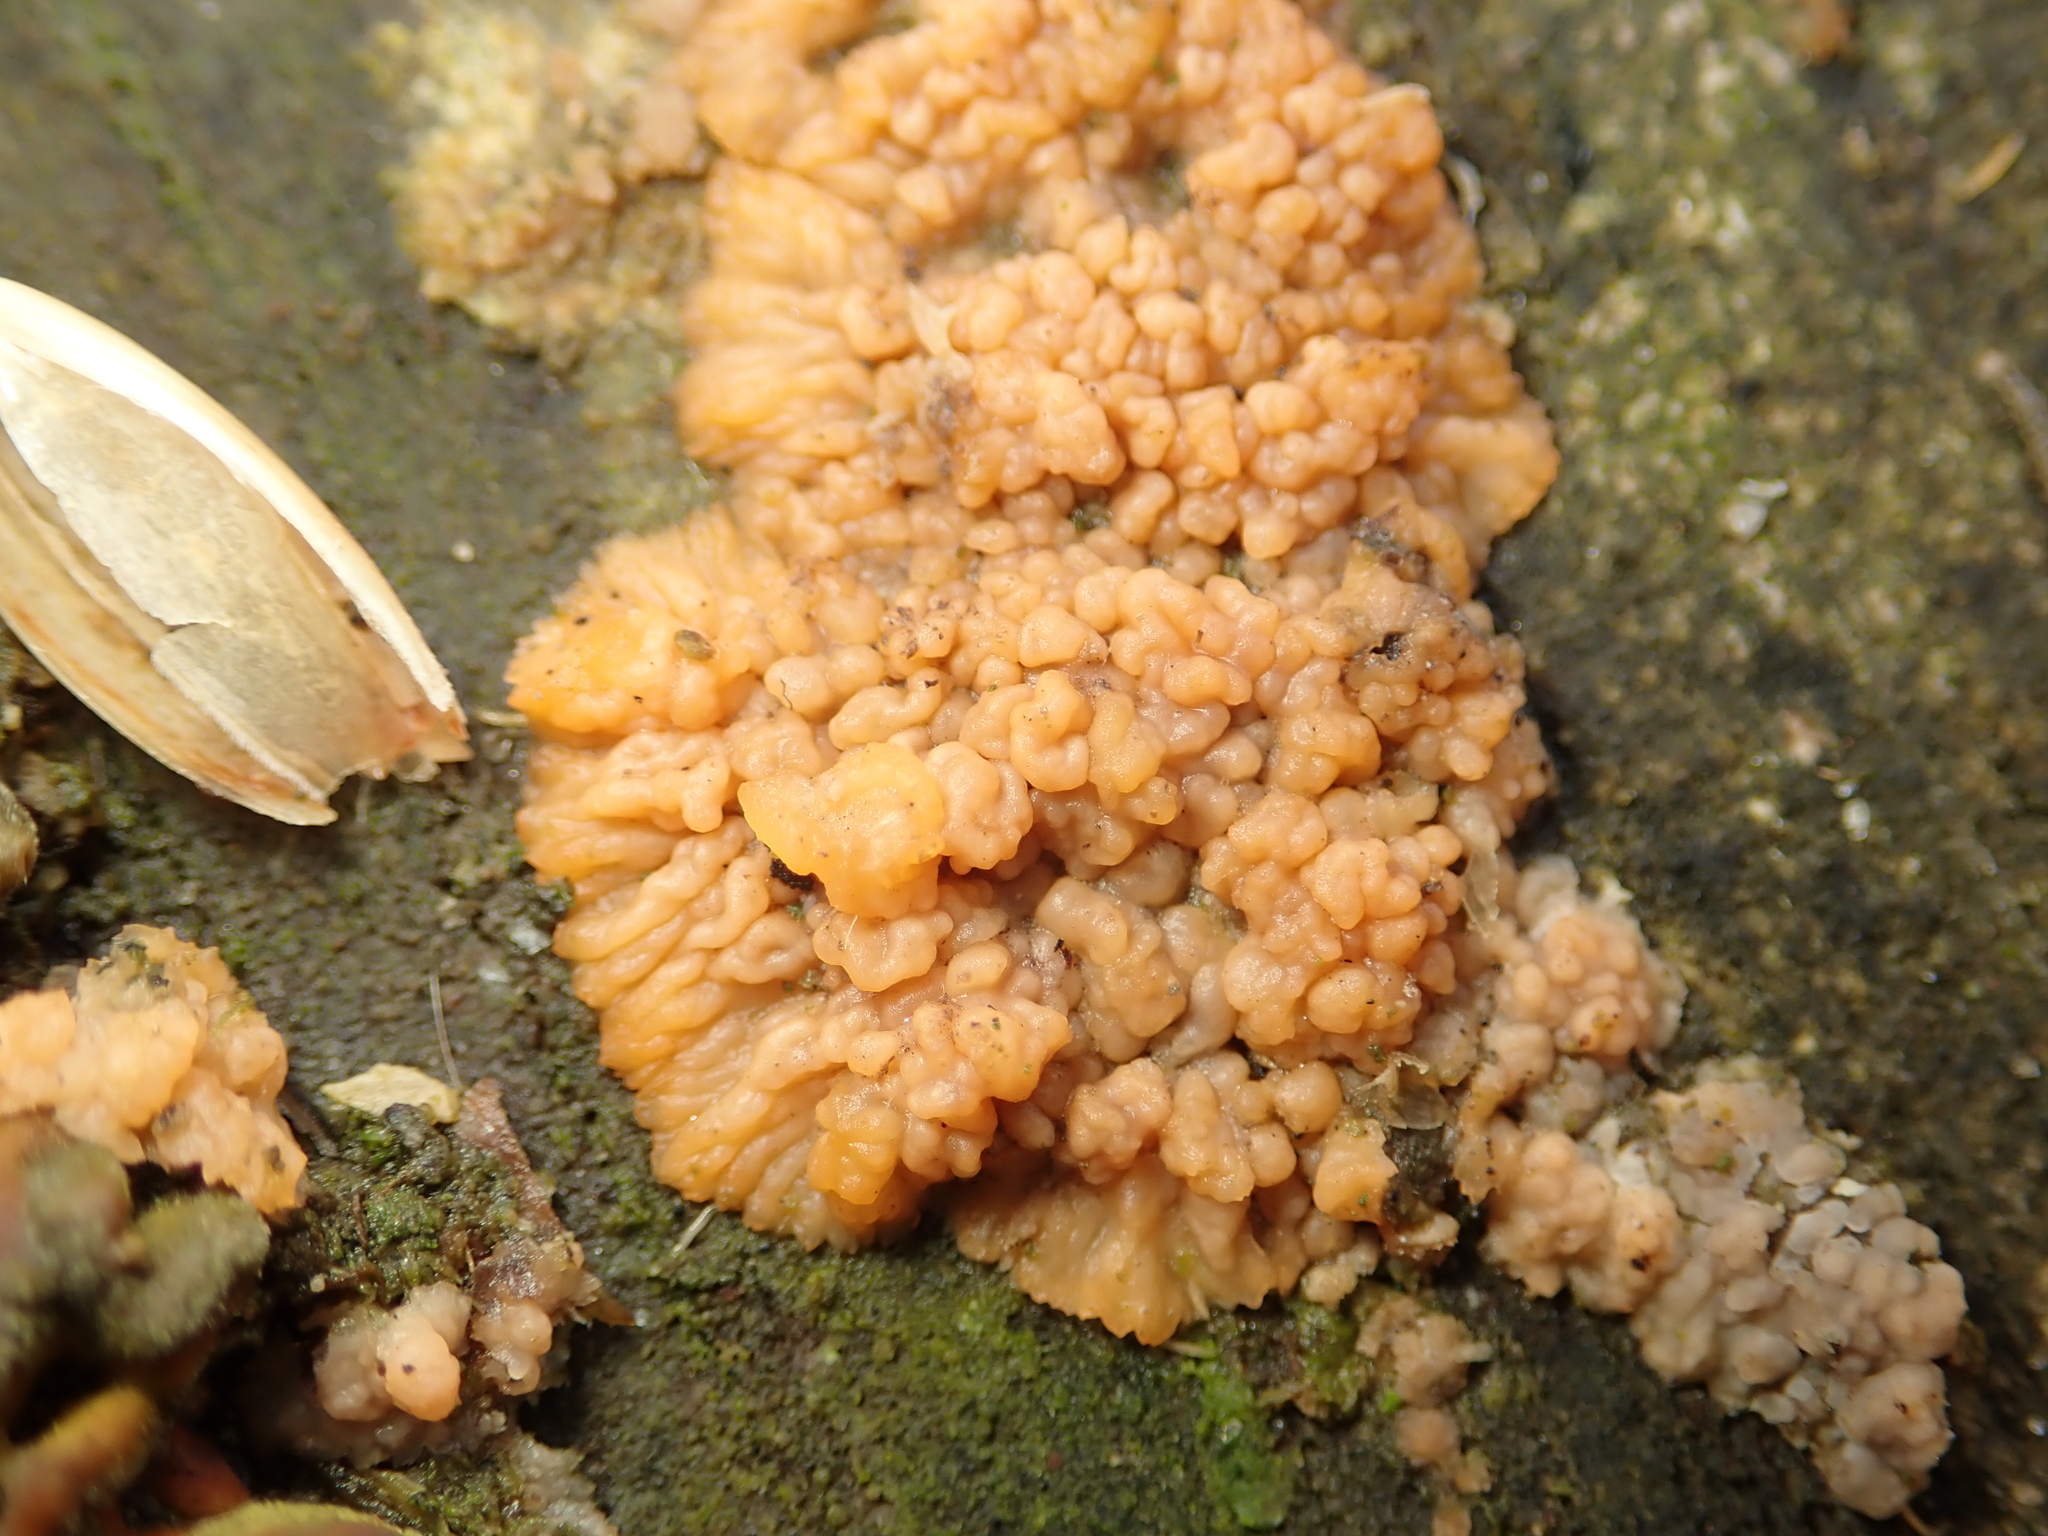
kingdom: Fungi
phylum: Basidiomycota
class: Agaricomycetes
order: Polyporales
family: Meruliaceae
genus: Phlebia
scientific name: Phlebia radiata
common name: Wrinkled crust
